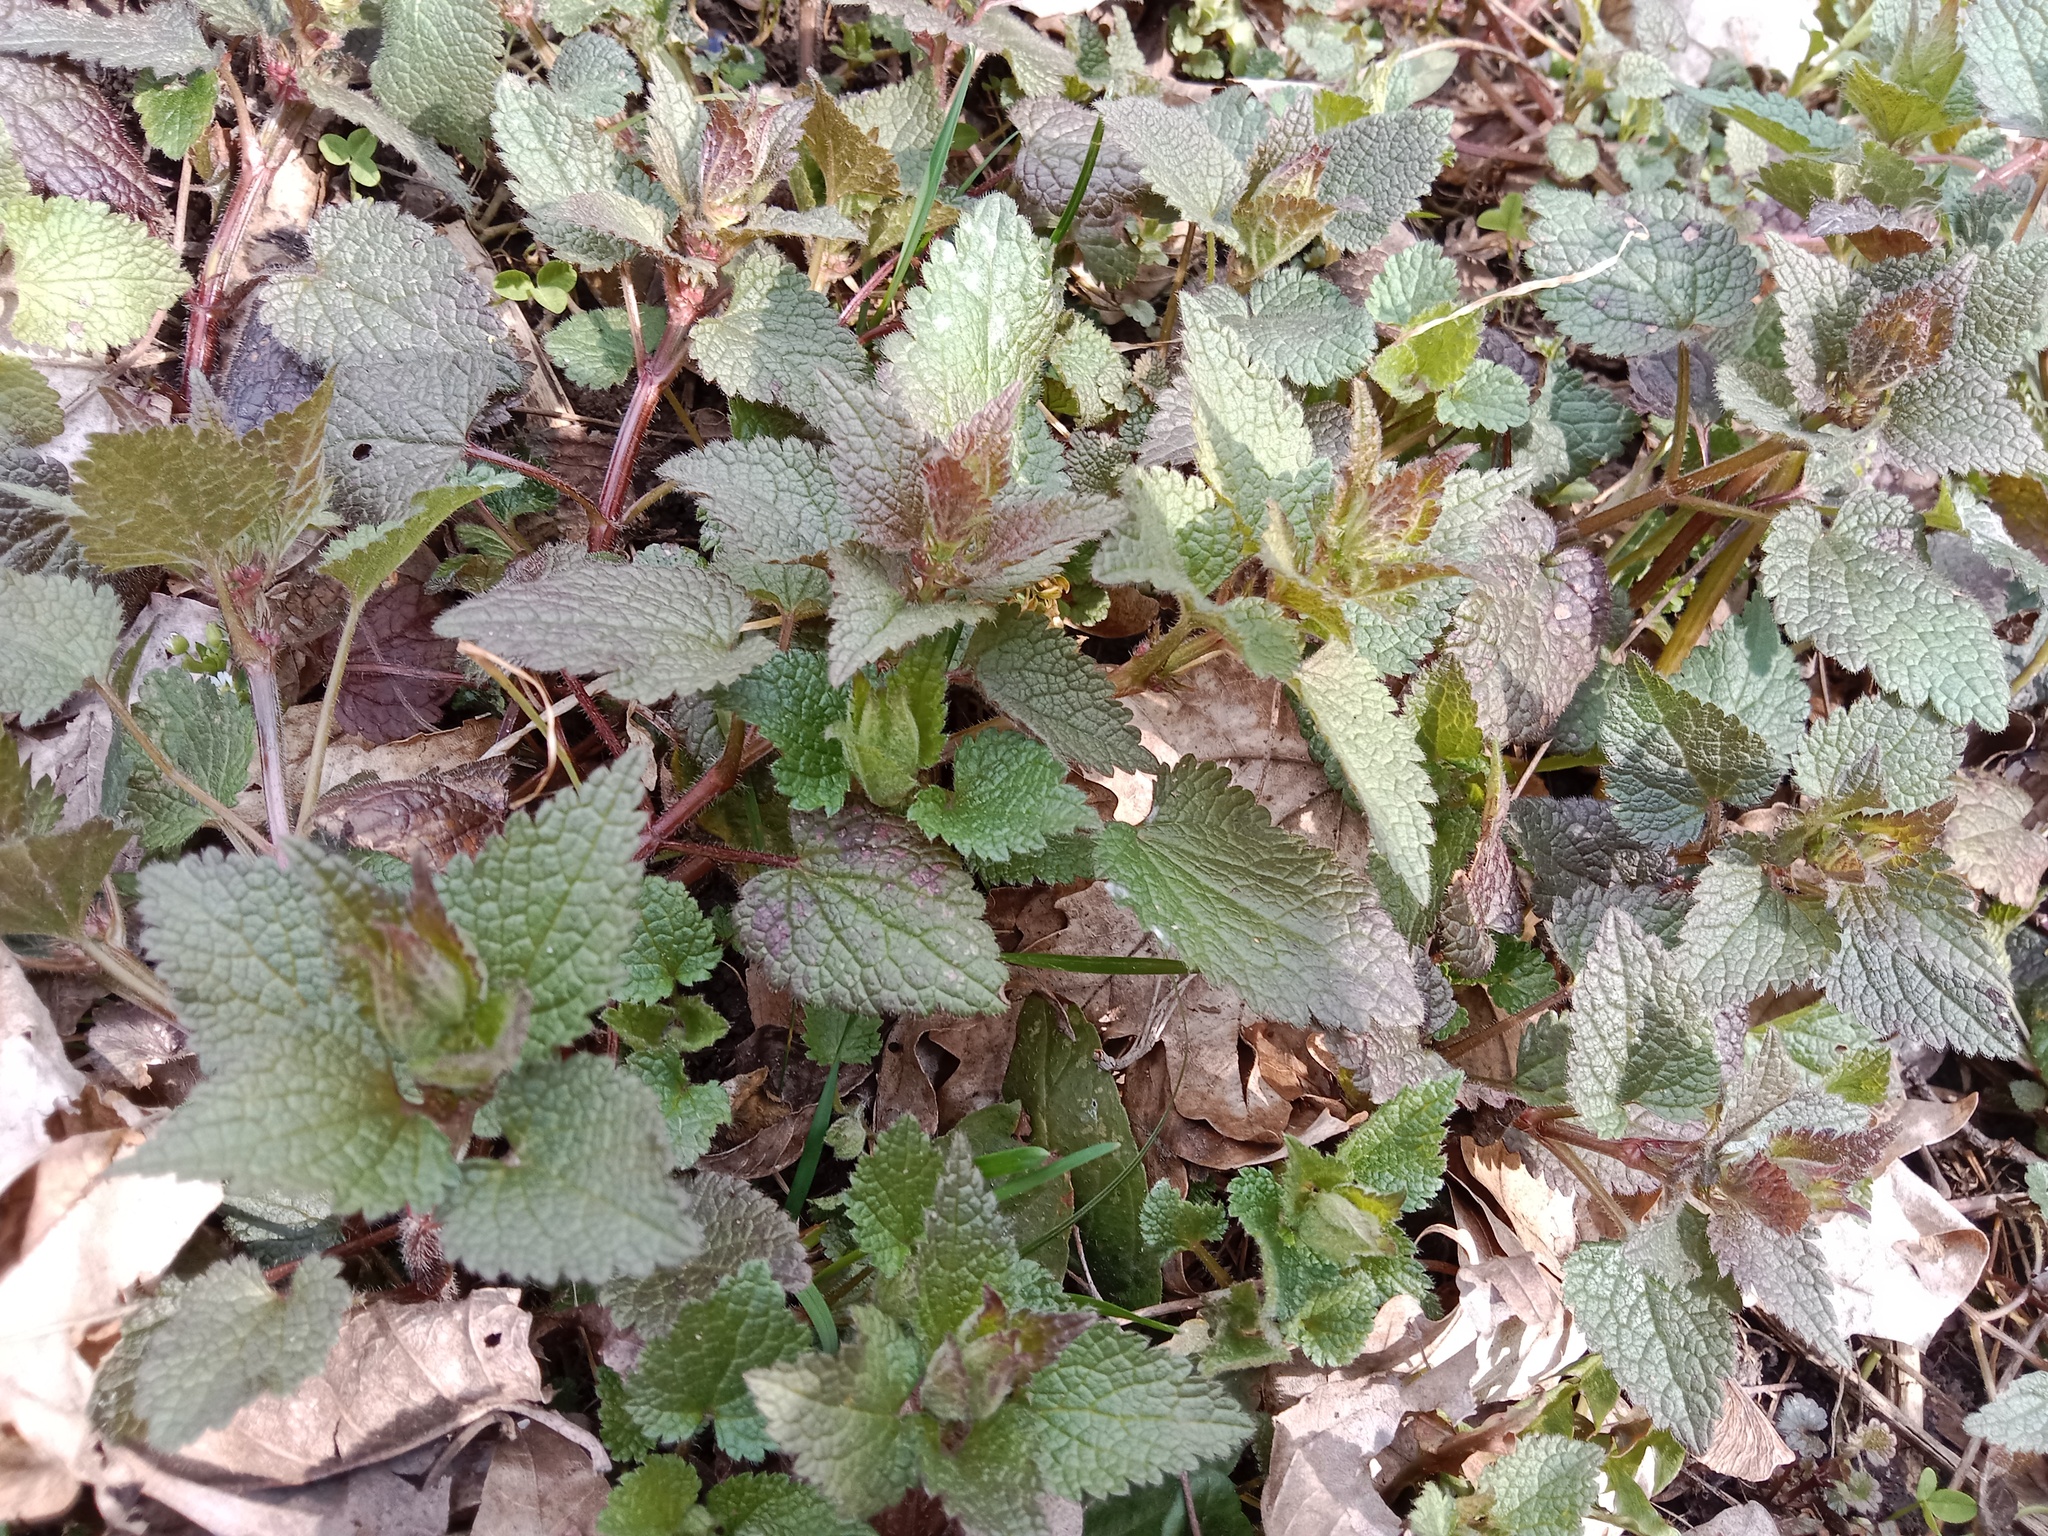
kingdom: Plantae
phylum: Tracheophyta
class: Magnoliopsida
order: Lamiales
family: Lamiaceae
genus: Lamium
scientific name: Lamium maculatum
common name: Spotted dead-nettle
